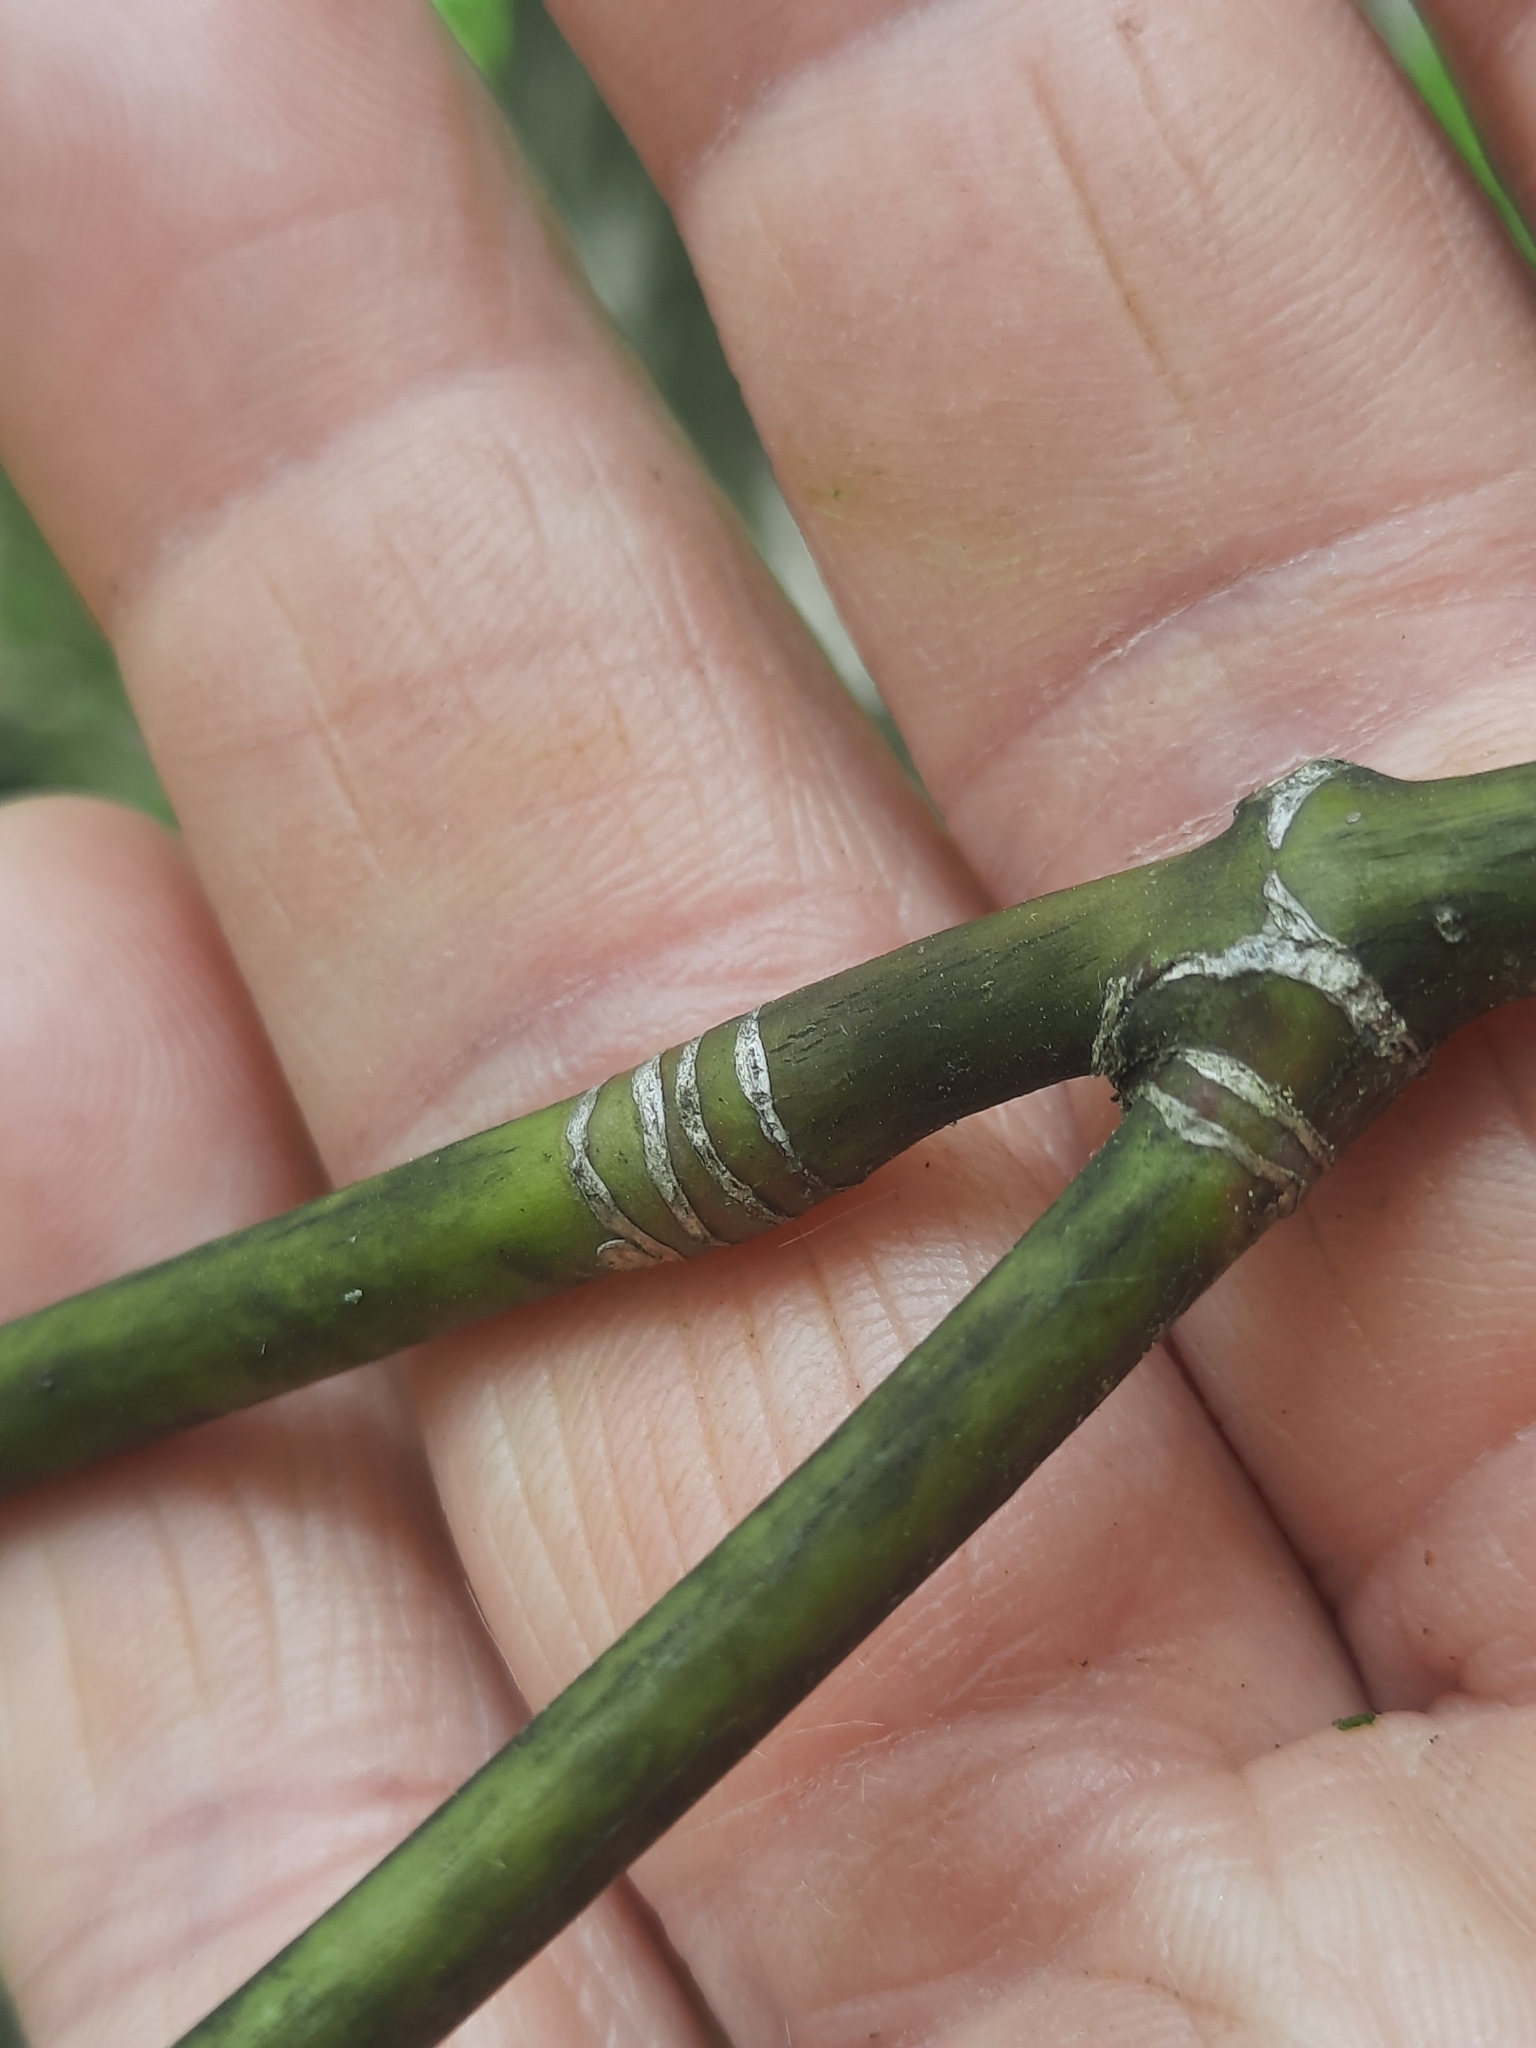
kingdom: Plantae
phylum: Tracheophyta
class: Magnoliopsida
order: Sapindales
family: Sapindaceae
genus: Acer
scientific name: Acer pensylvanicum
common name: Moosewood
